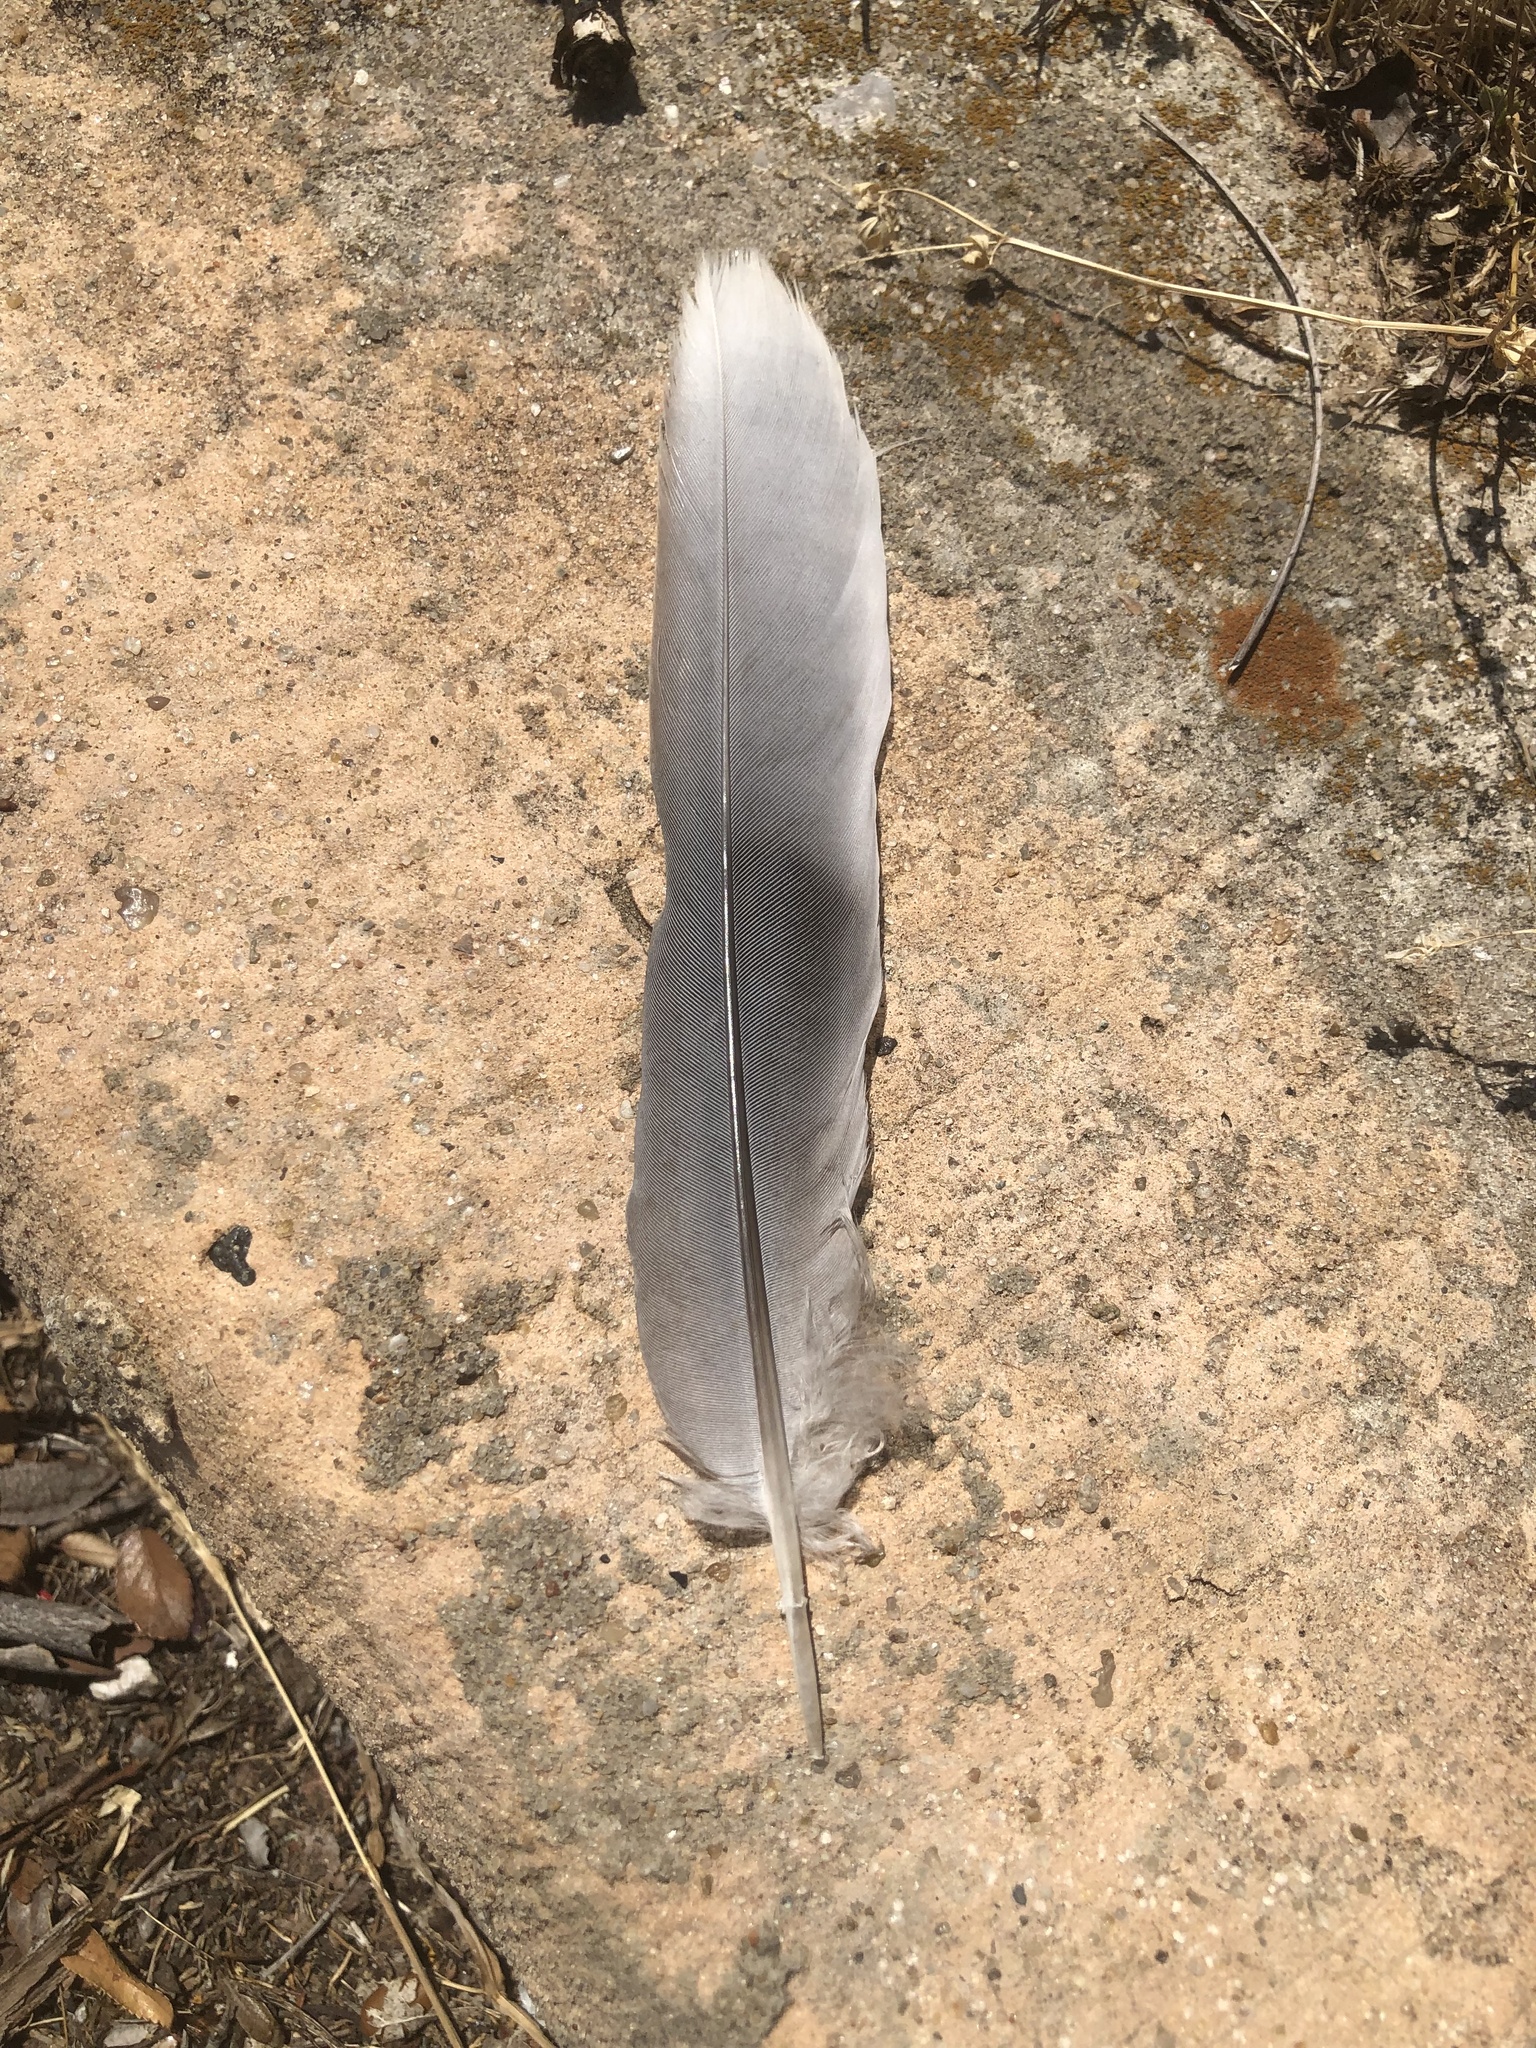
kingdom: Animalia
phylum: Chordata
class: Aves
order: Columbiformes
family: Columbidae
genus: Streptopelia
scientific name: Streptopelia decaocto
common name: Eurasian collared dove
